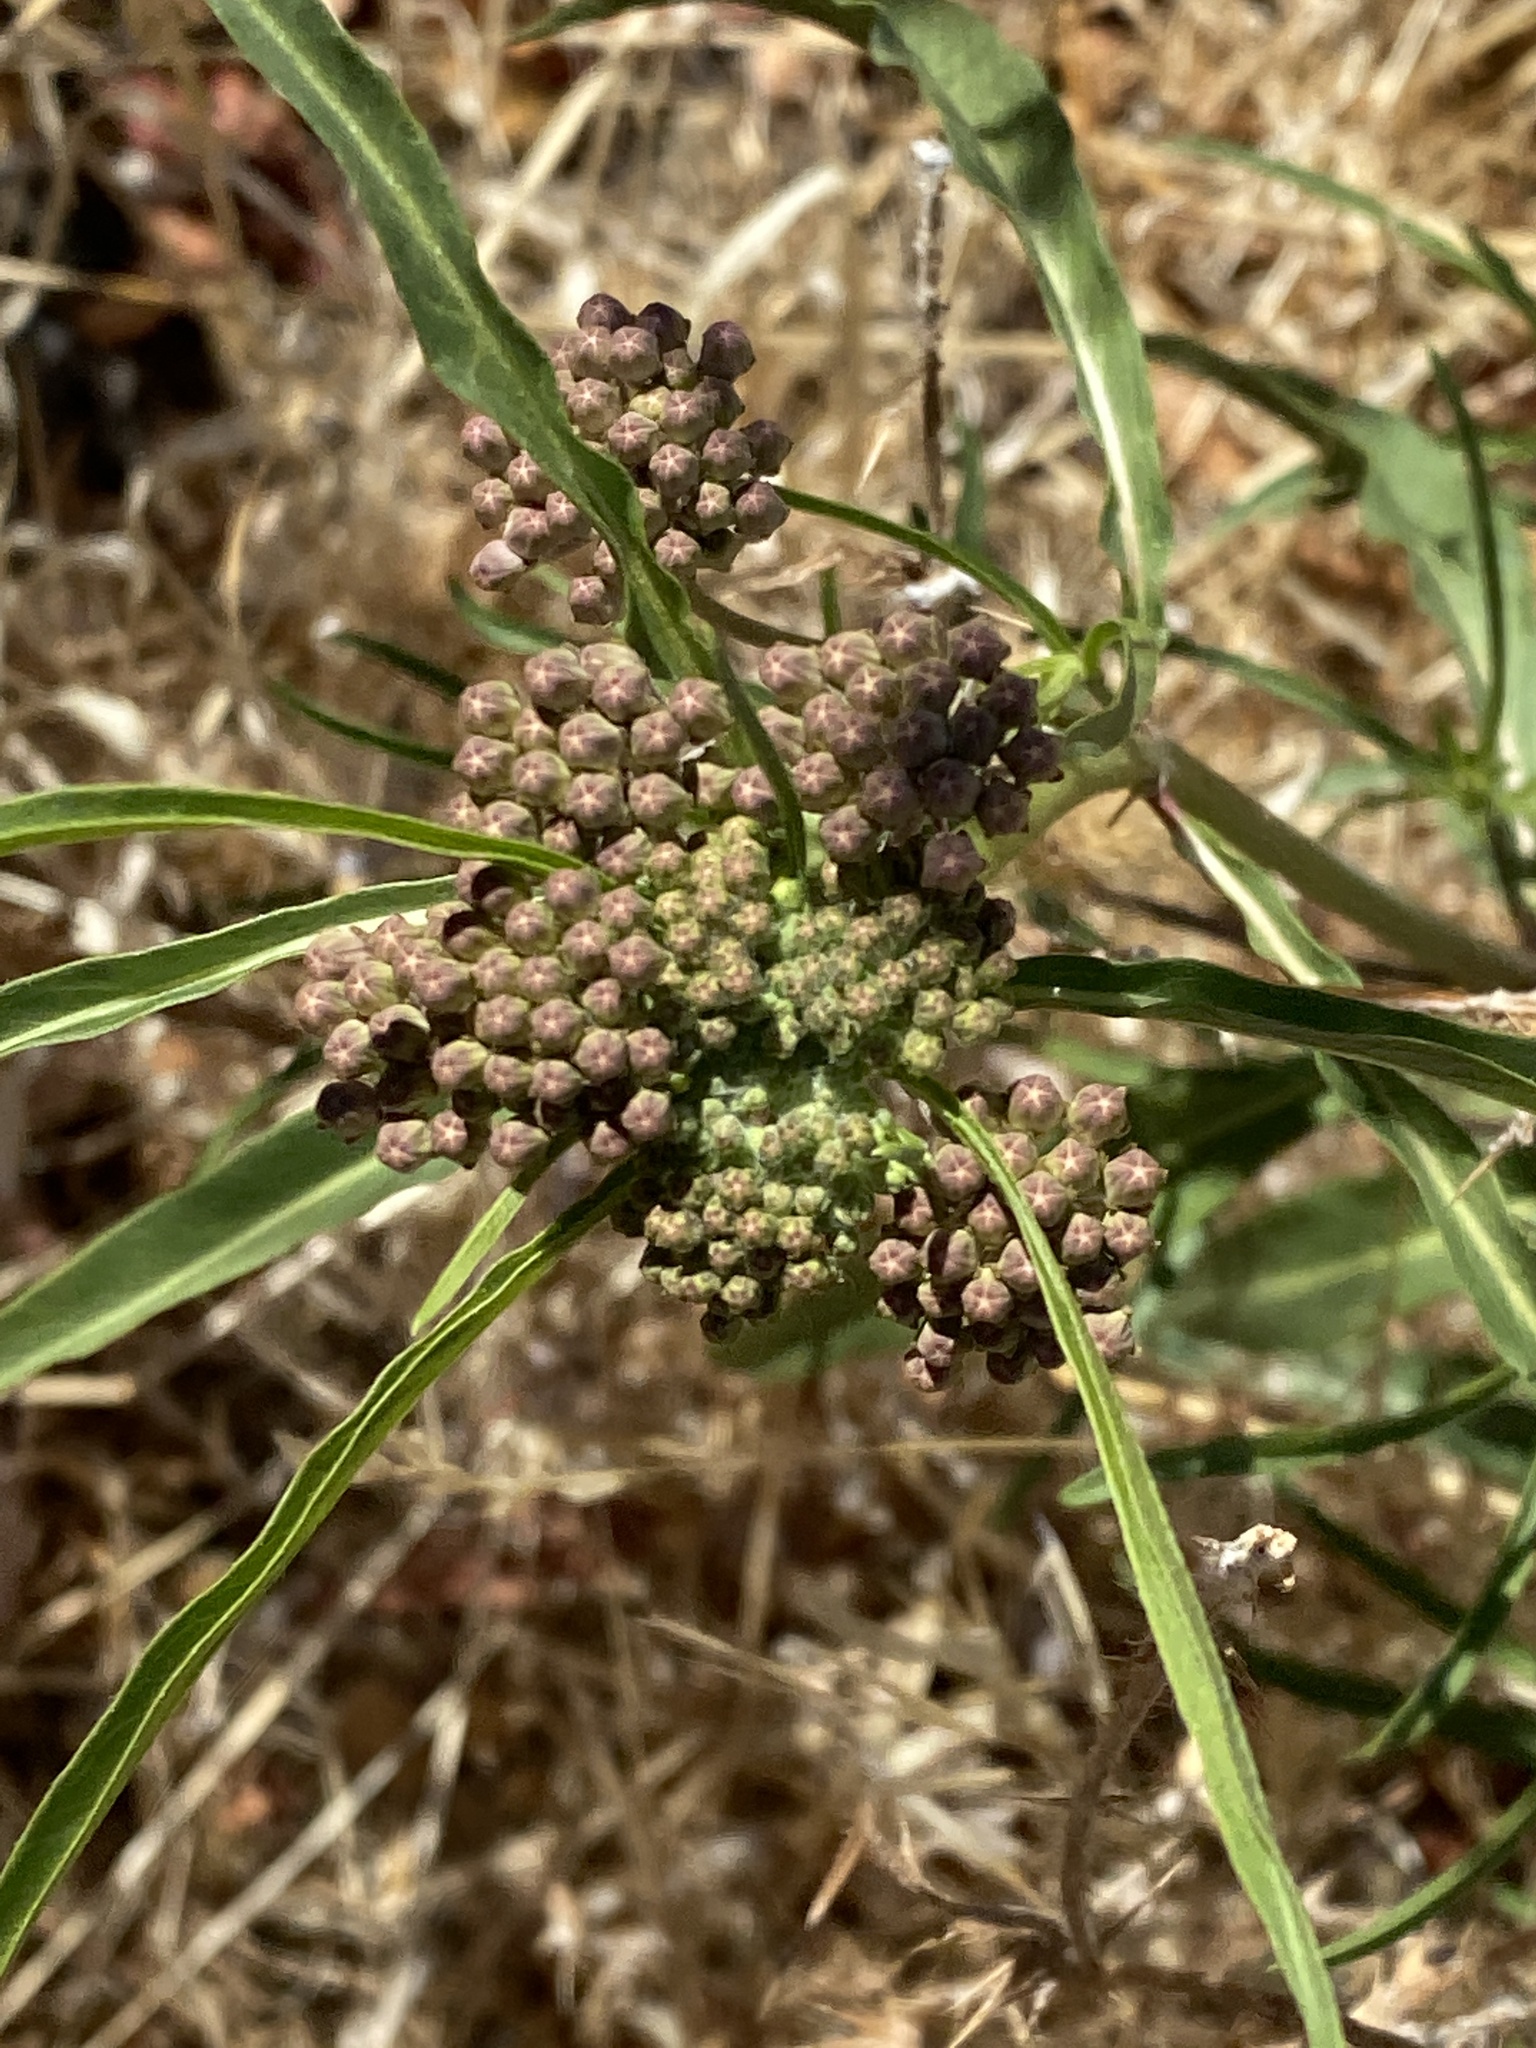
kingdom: Plantae
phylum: Tracheophyta
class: Magnoliopsida
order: Gentianales
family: Apocynaceae
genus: Asclepias
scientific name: Asclepias fascicularis
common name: Mexican milkweed
